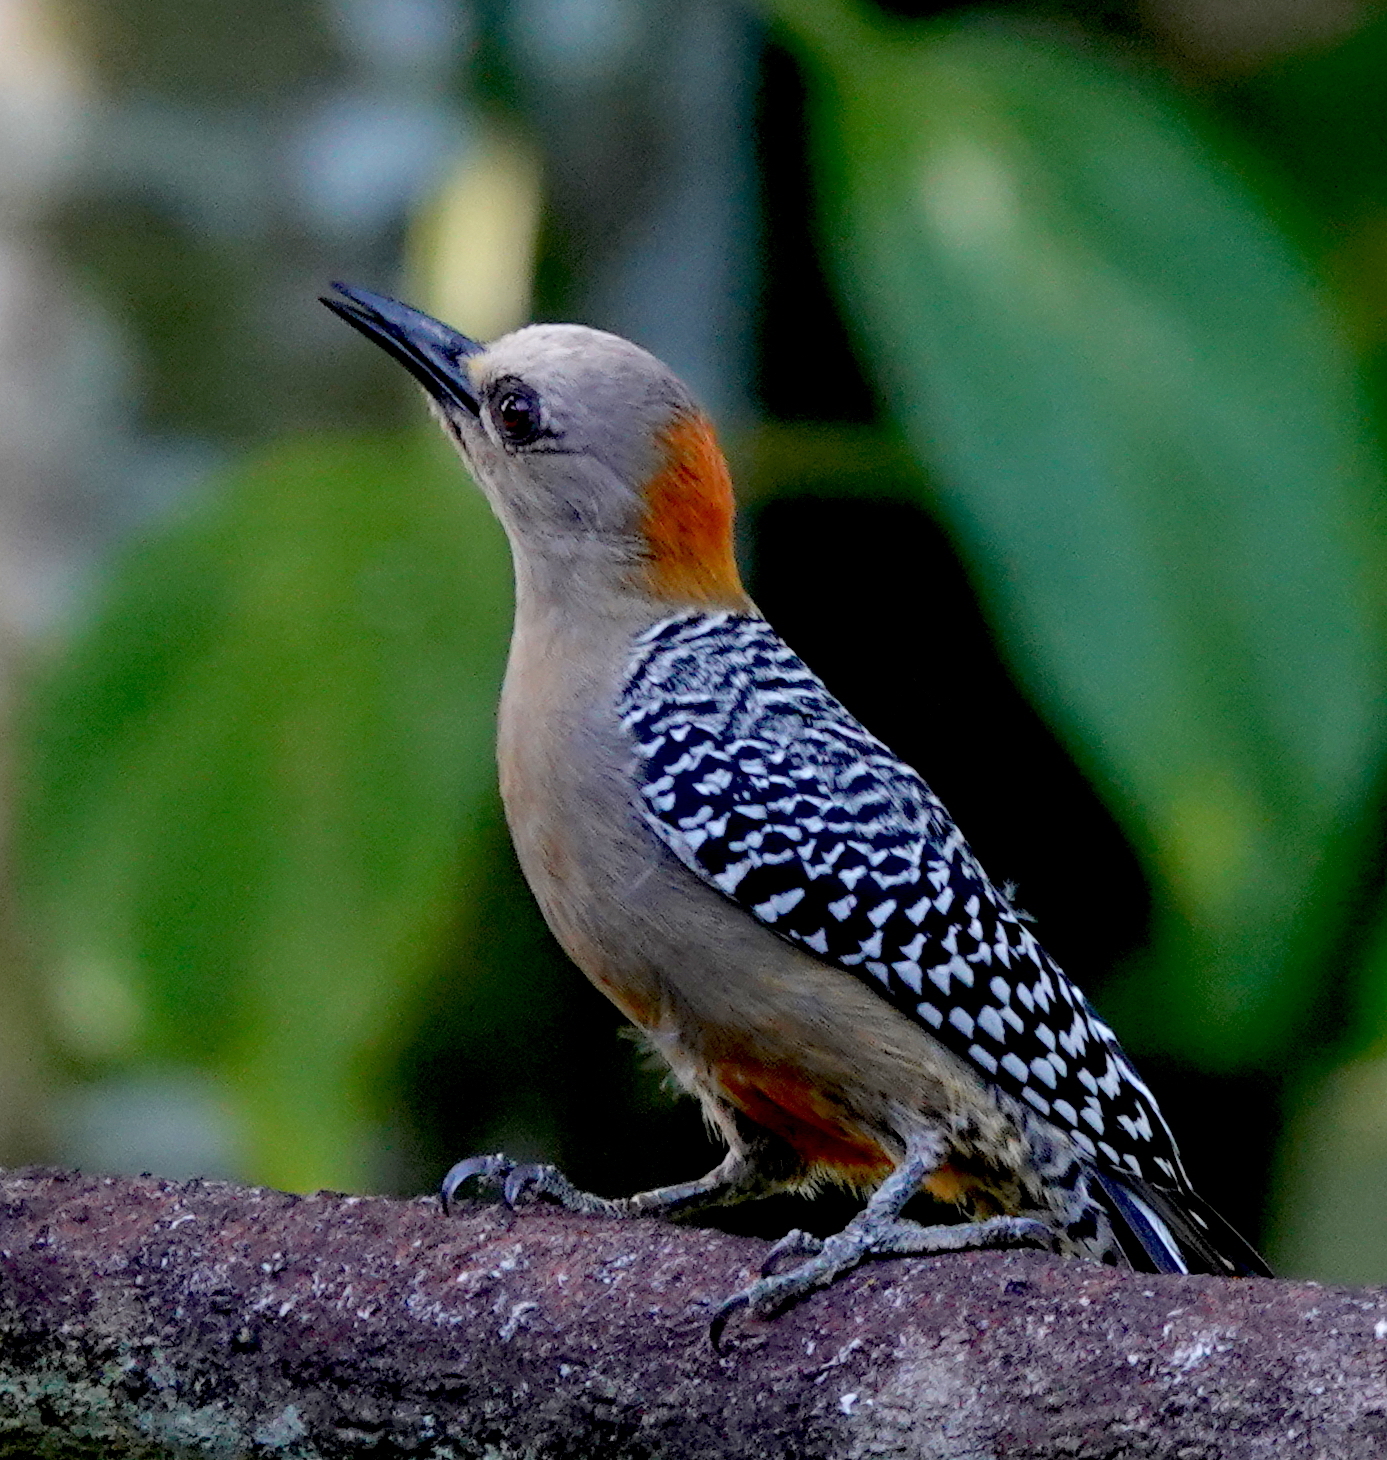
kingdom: Animalia
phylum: Chordata
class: Aves
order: Piciformes
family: Picidae
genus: Melanerpes
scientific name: Melanerpes hoffmannii
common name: Hoffmann's woodpecker
